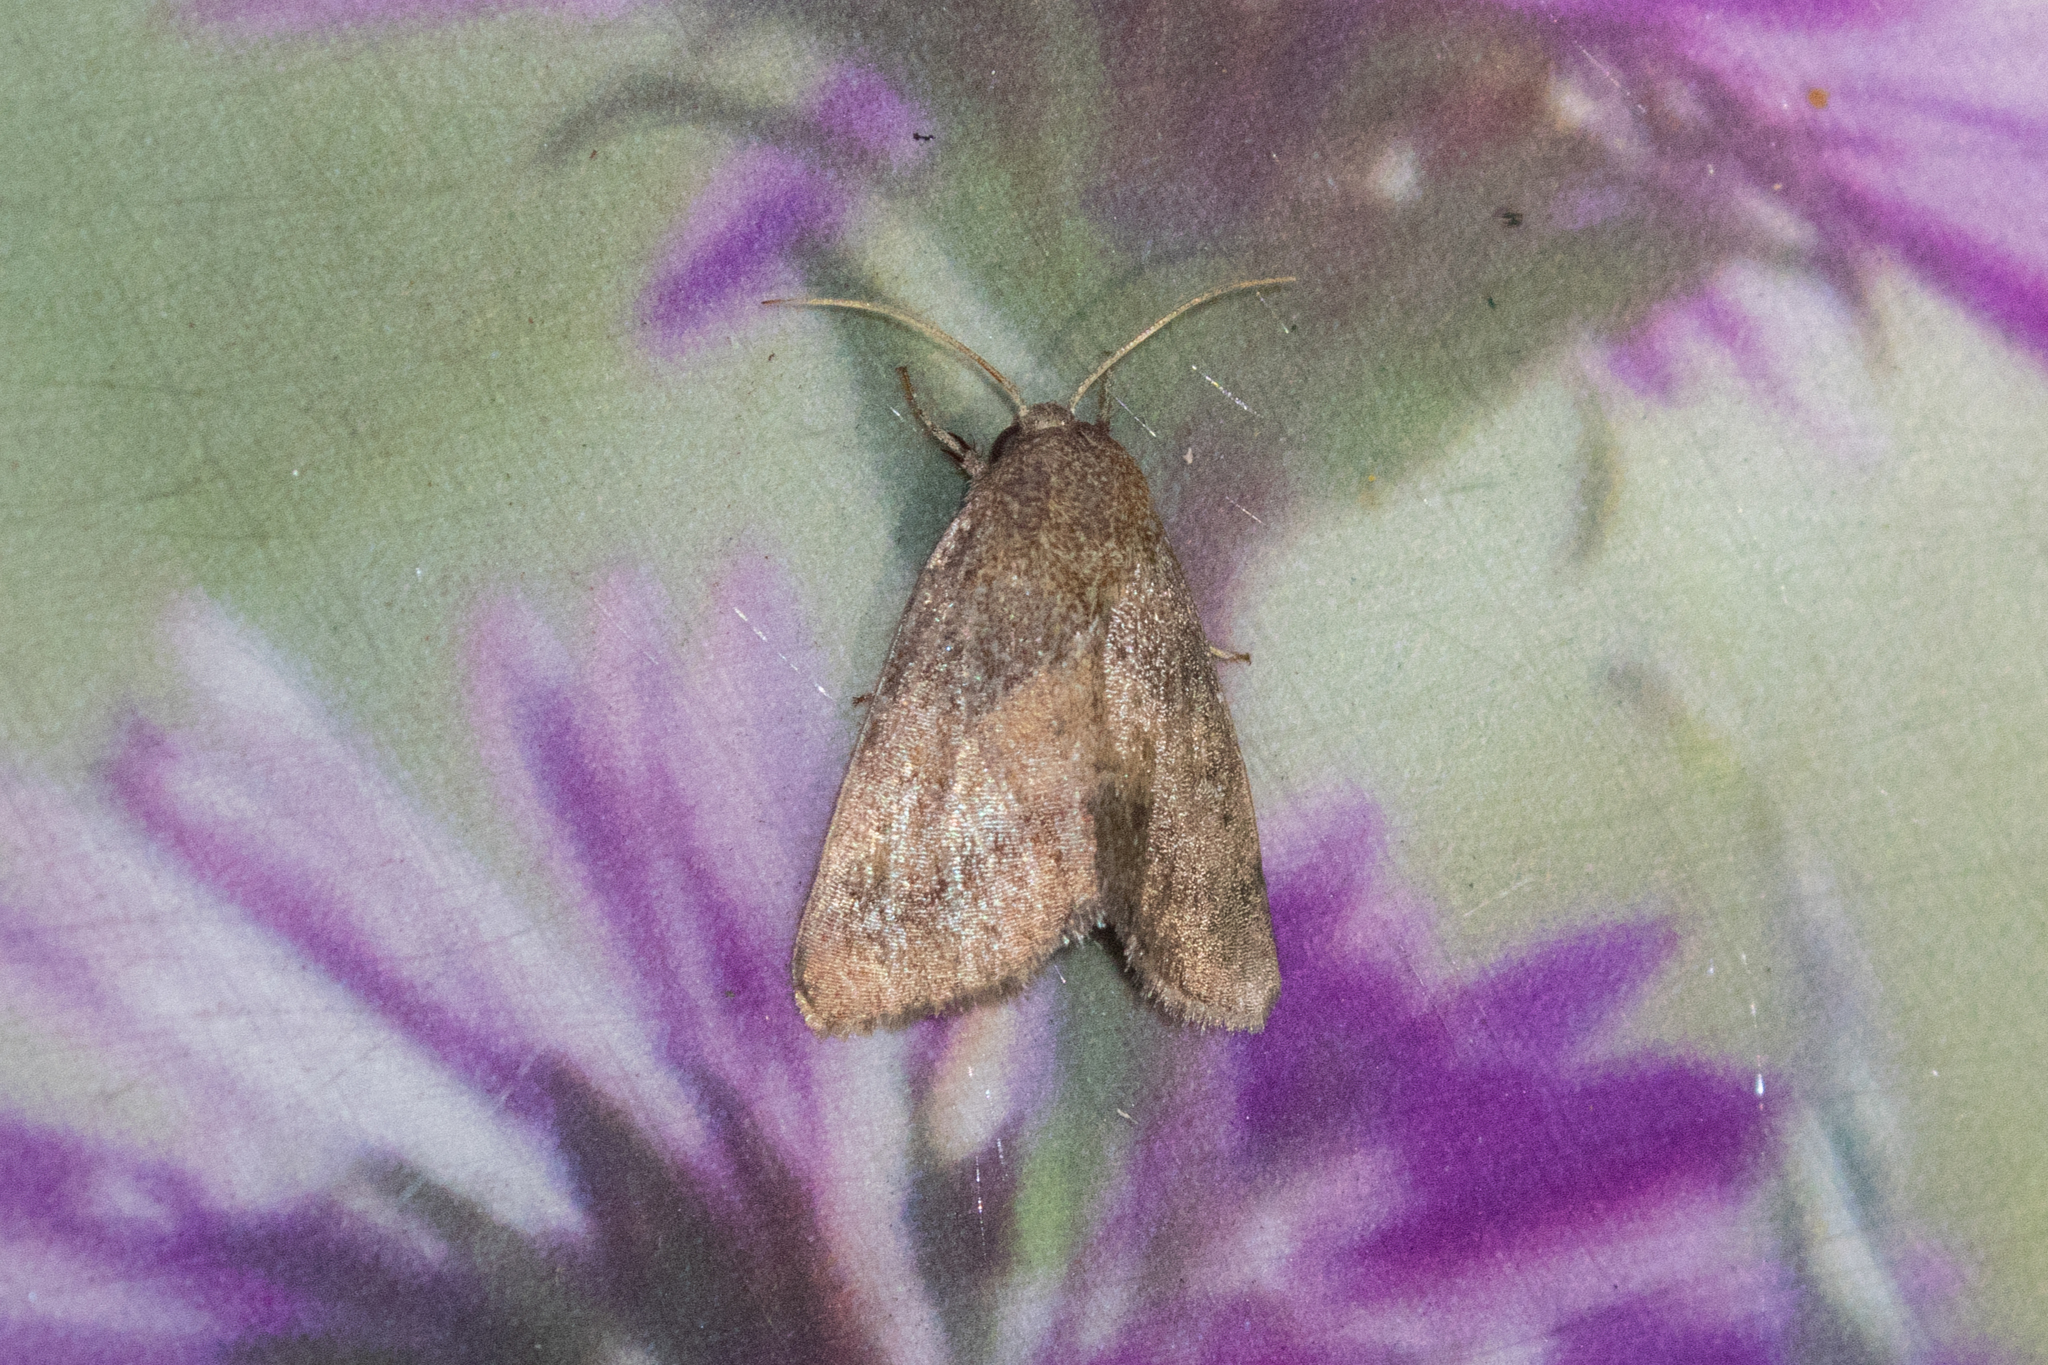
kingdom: Animalia
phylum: Arthropoda
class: Insecta
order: Lepidoptera
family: Noctuidae
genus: Schinia
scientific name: Schinia saturata
